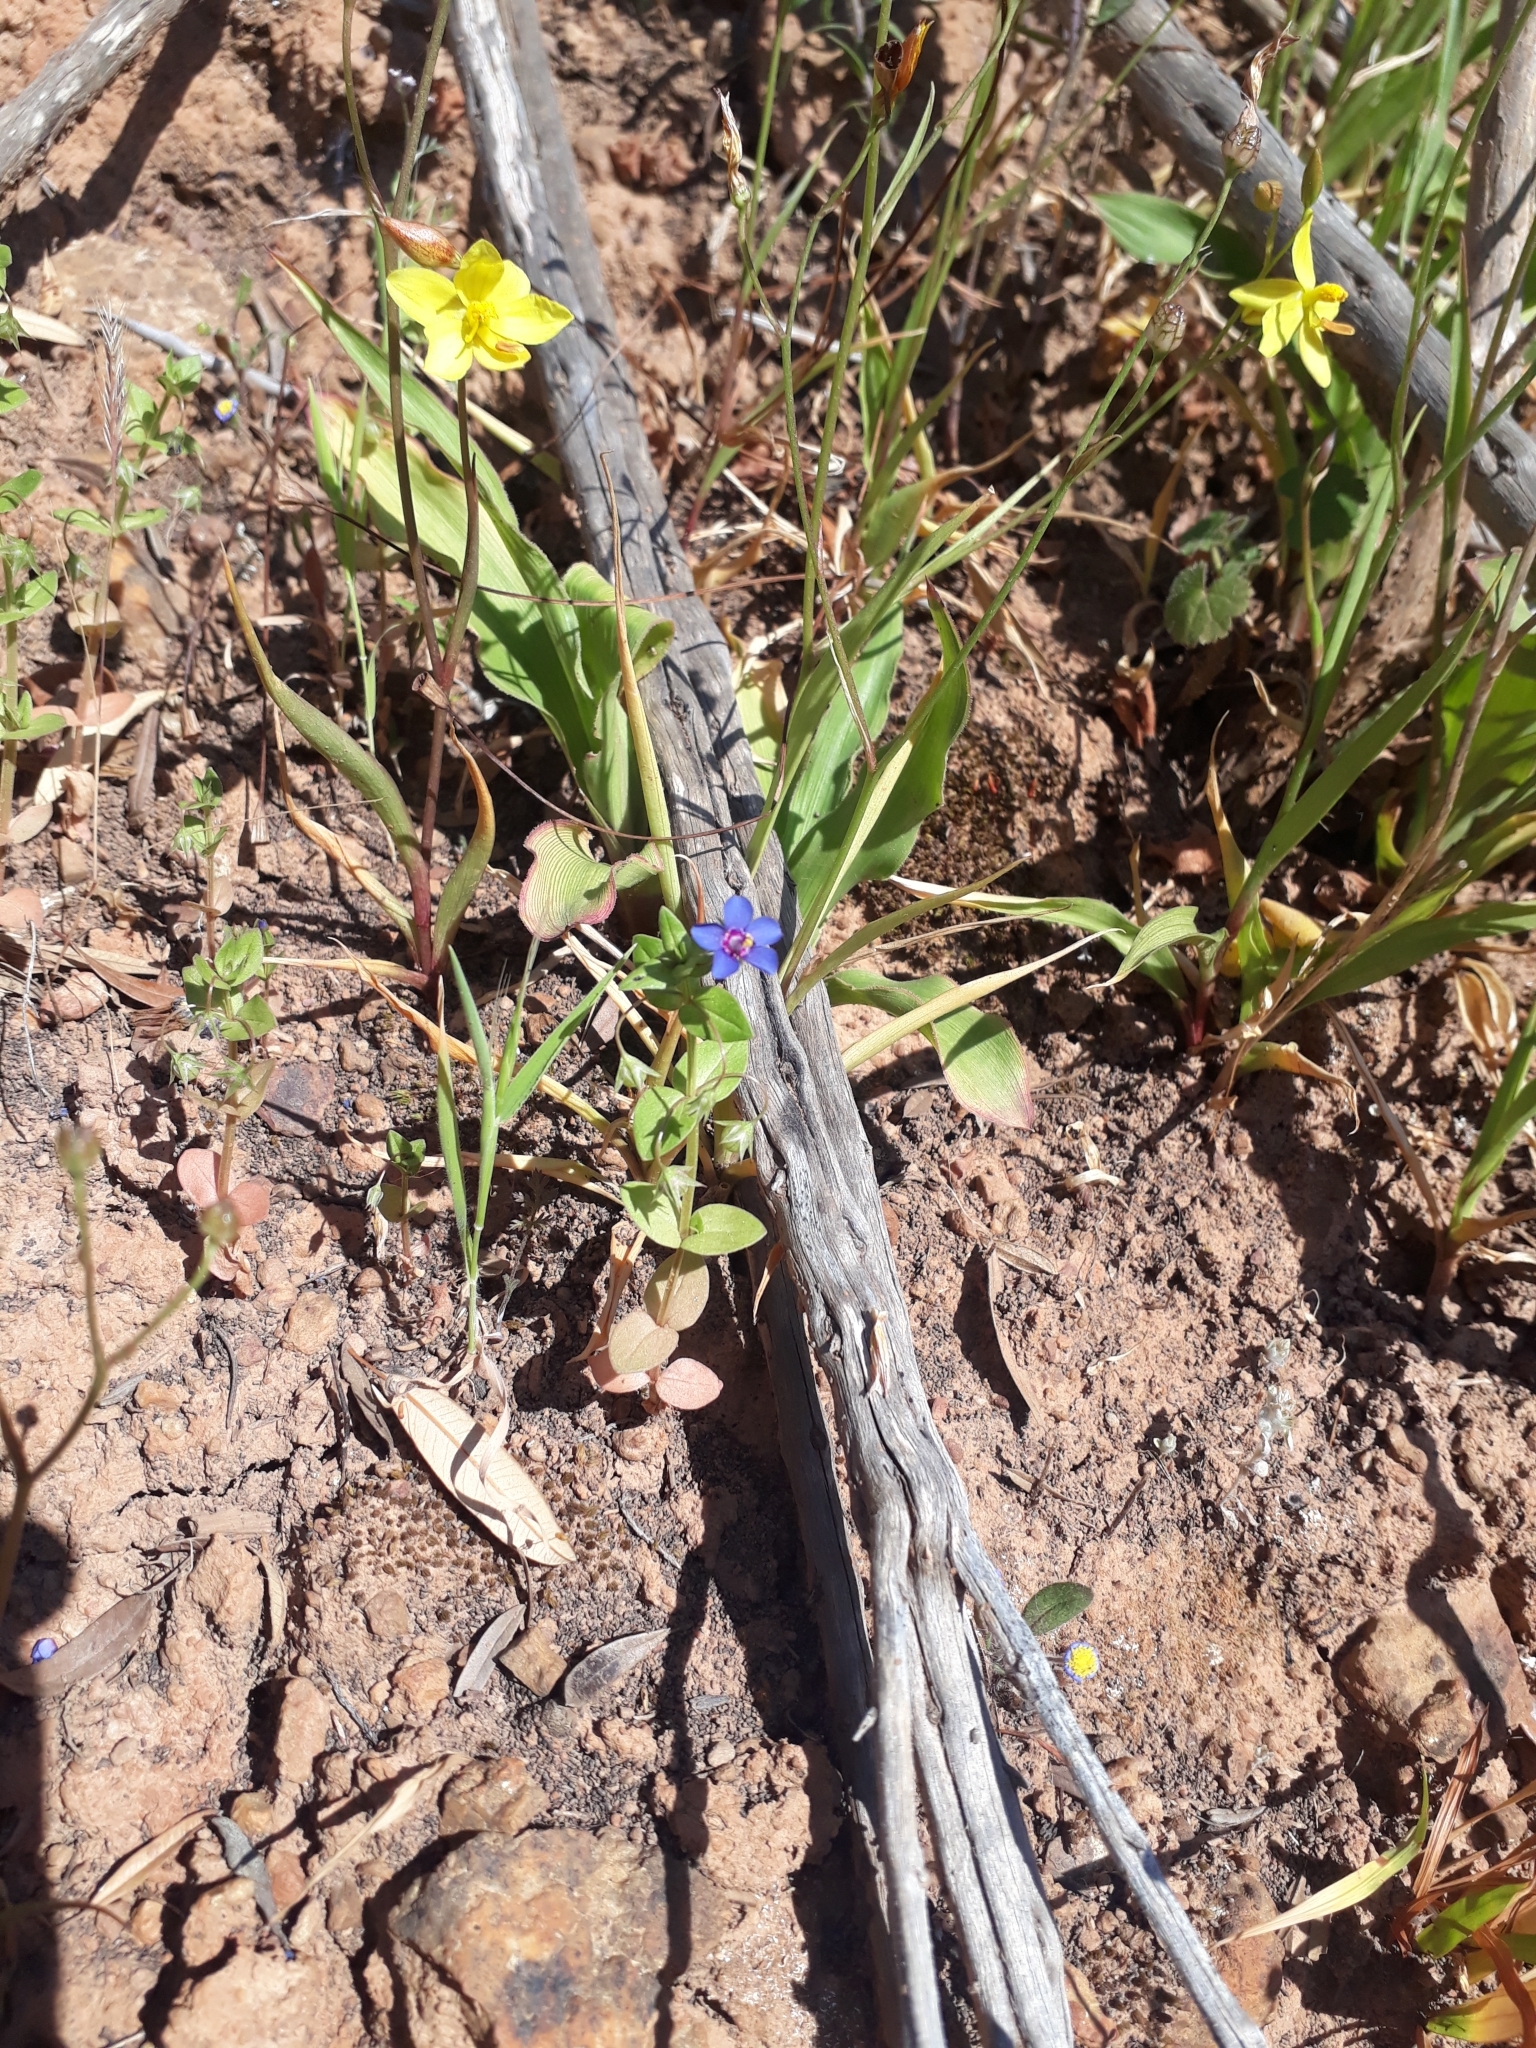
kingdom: Plantae
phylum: Tracheophyta
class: Magnoliopsida
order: Ericales
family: Primulaceae
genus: Lysimachia
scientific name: Lysimachia loeflingii
